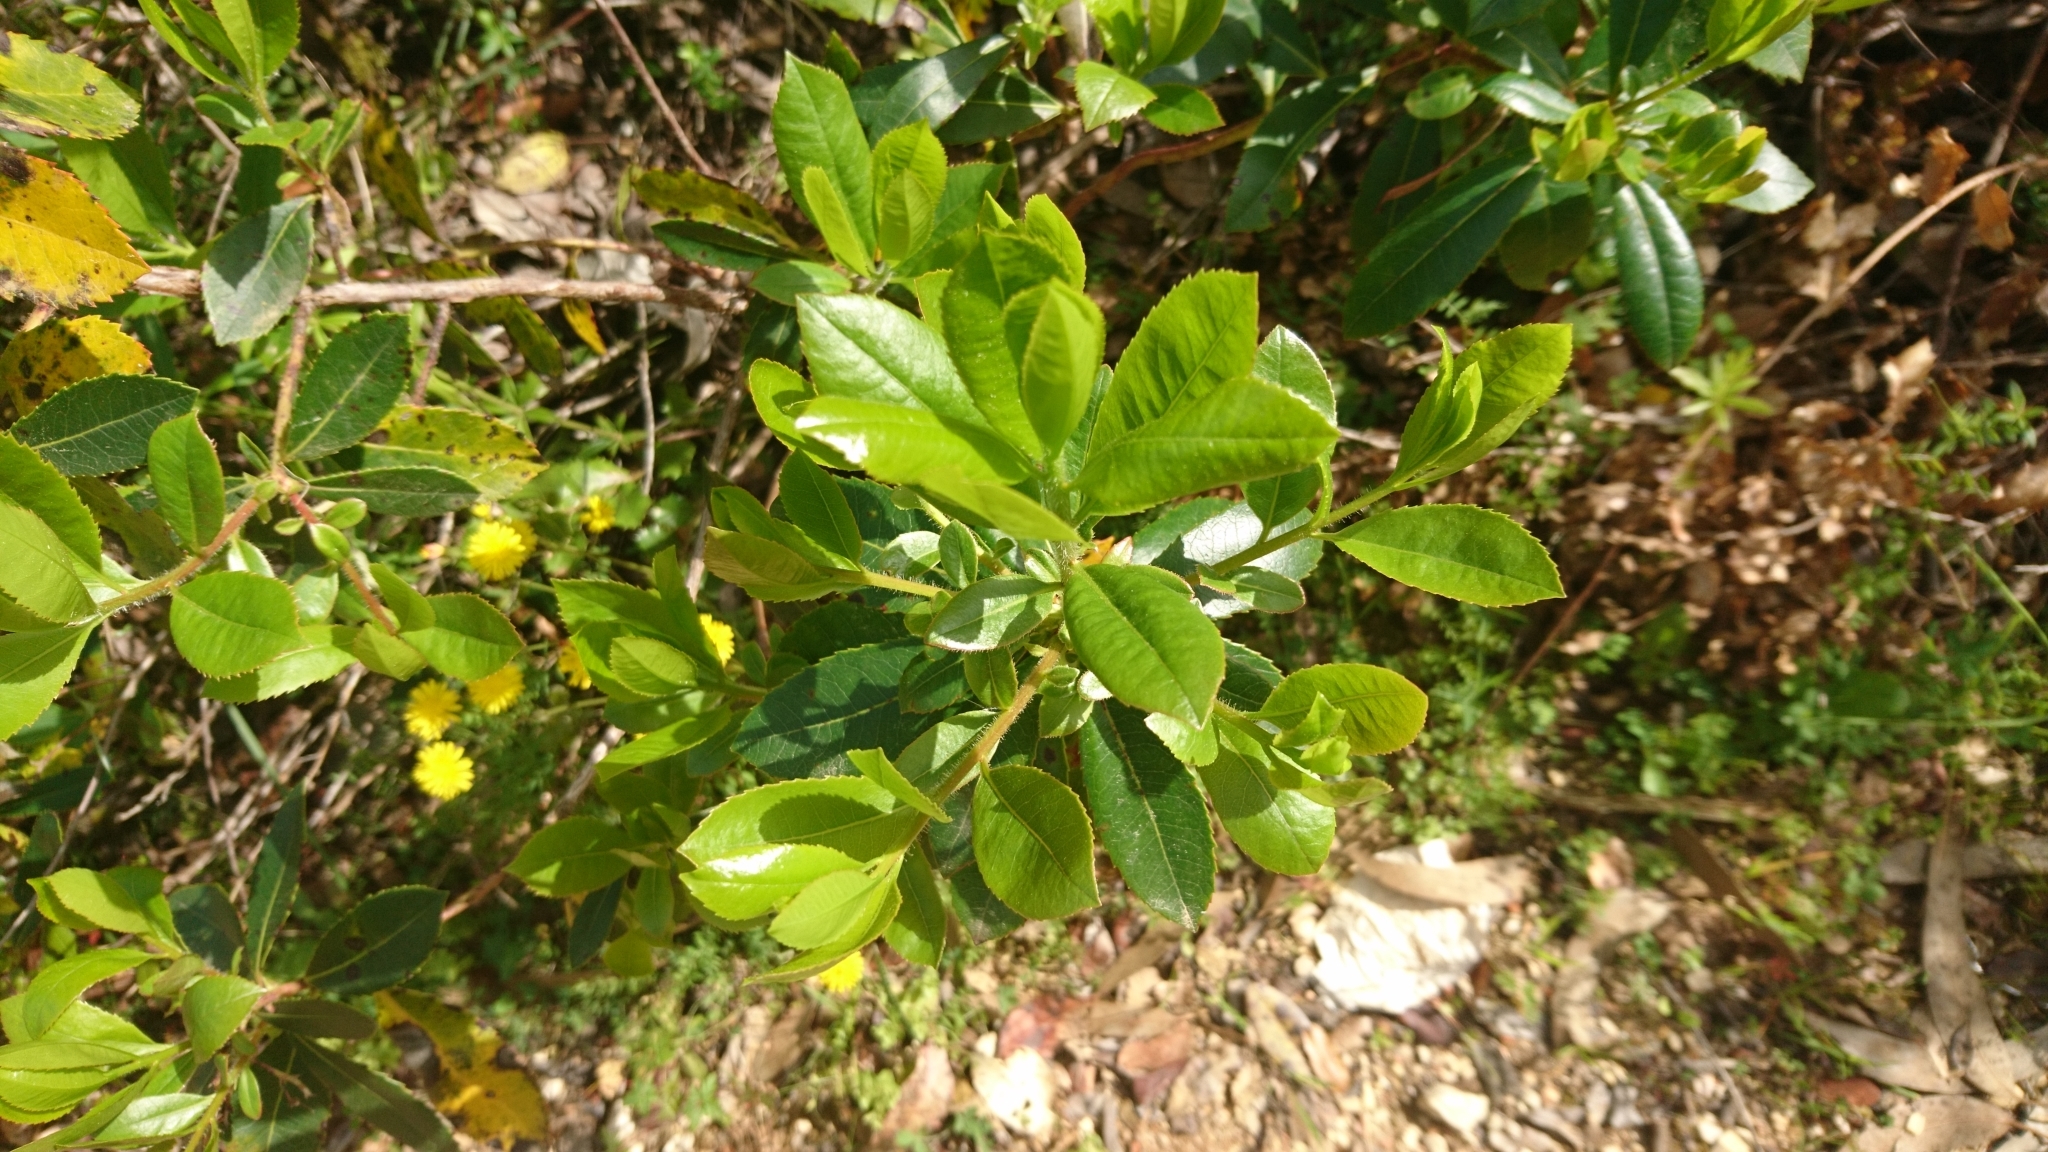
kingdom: Plantae
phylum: Tracheophyta
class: Magnoliopsida
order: Ericales
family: Ericaceae
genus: Arbutus
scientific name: Arbutus unedo
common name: Strawberry-tree
